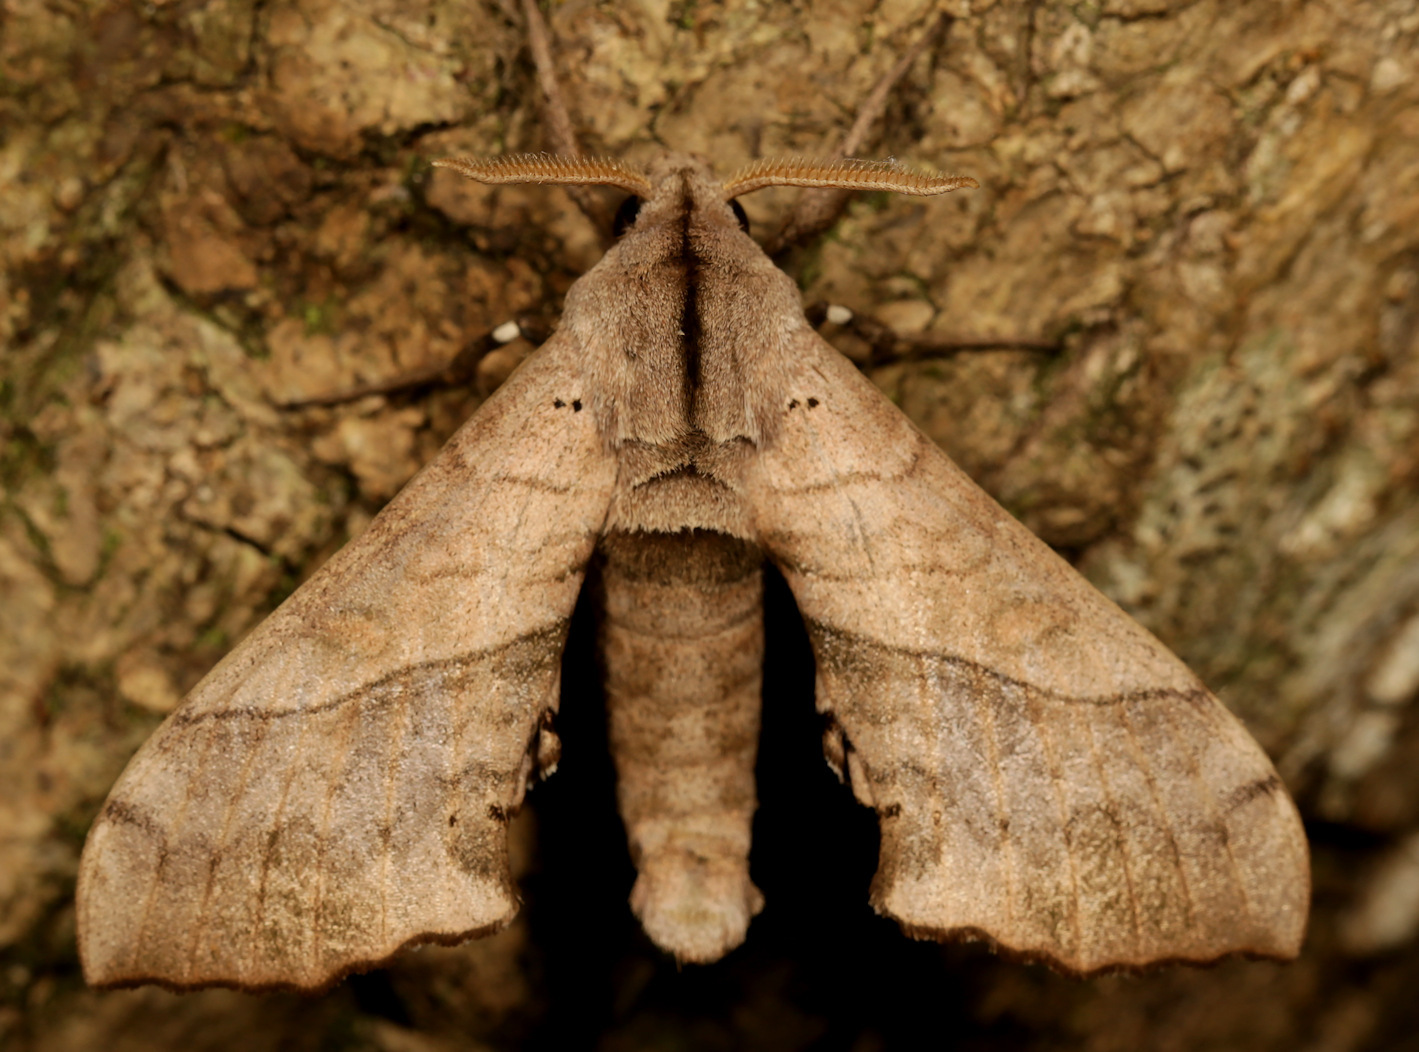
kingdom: Animalia
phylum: Arthropoda
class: Insecta
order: Lepidoptera
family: Sphingidae
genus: Rufoclanis
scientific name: Rufoclanis numosae
